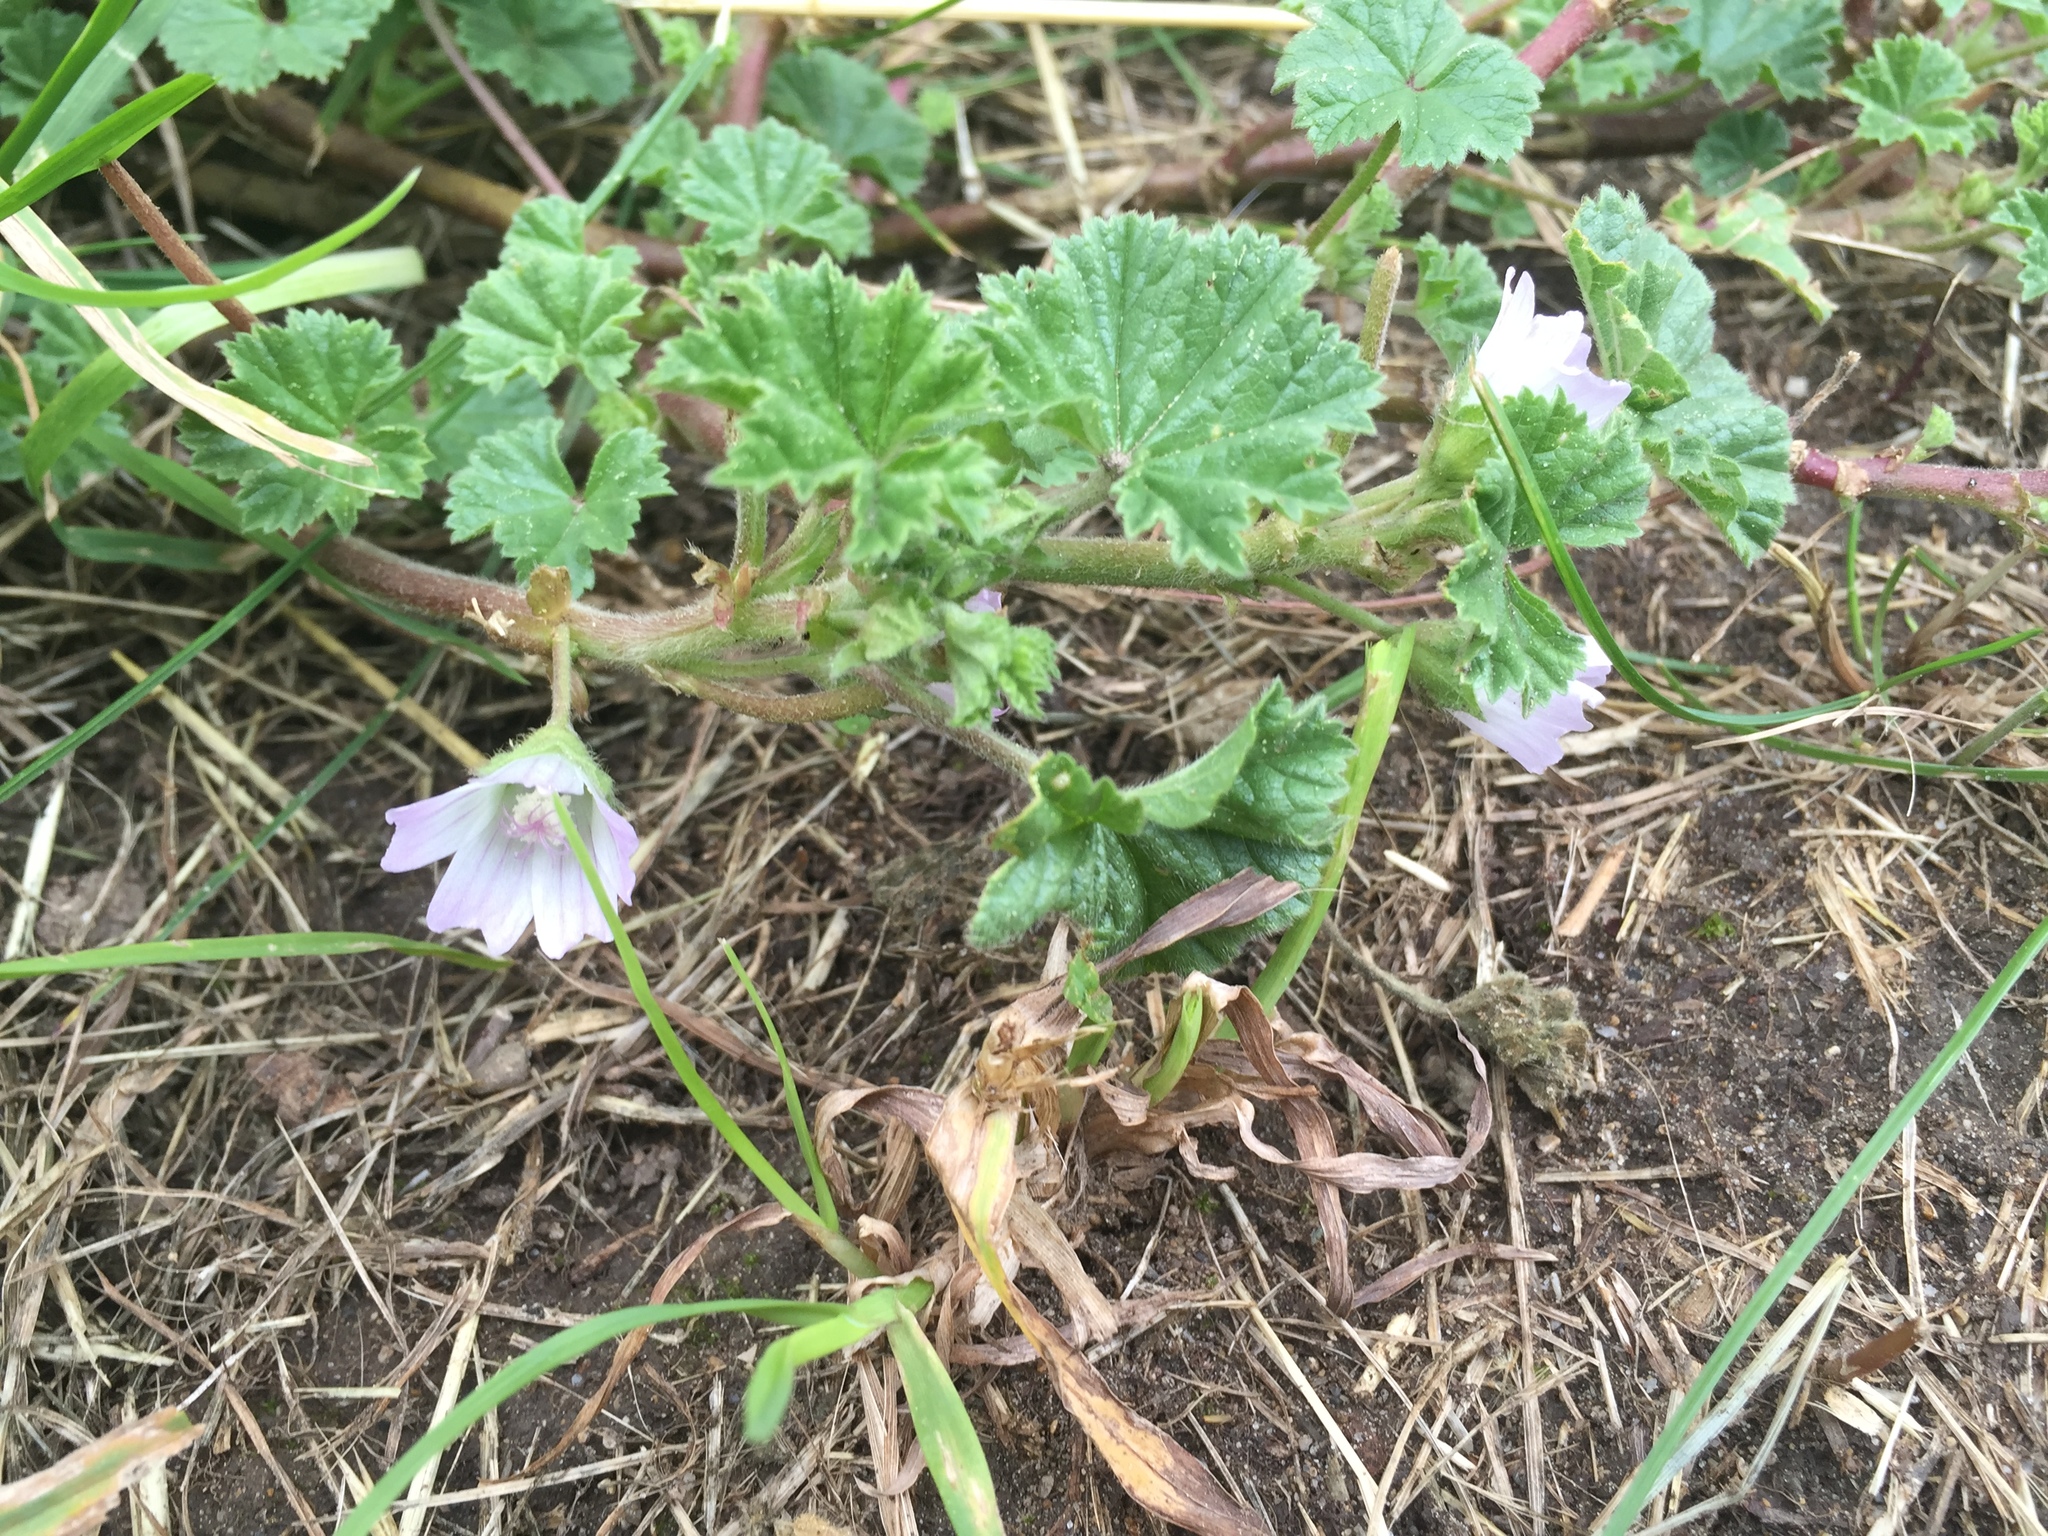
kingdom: Plantae
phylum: Tracheophyta
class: Magnoliopsida
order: Malvales
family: Malvaceae
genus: Malva
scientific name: Malva neglecta
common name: Common mallow
